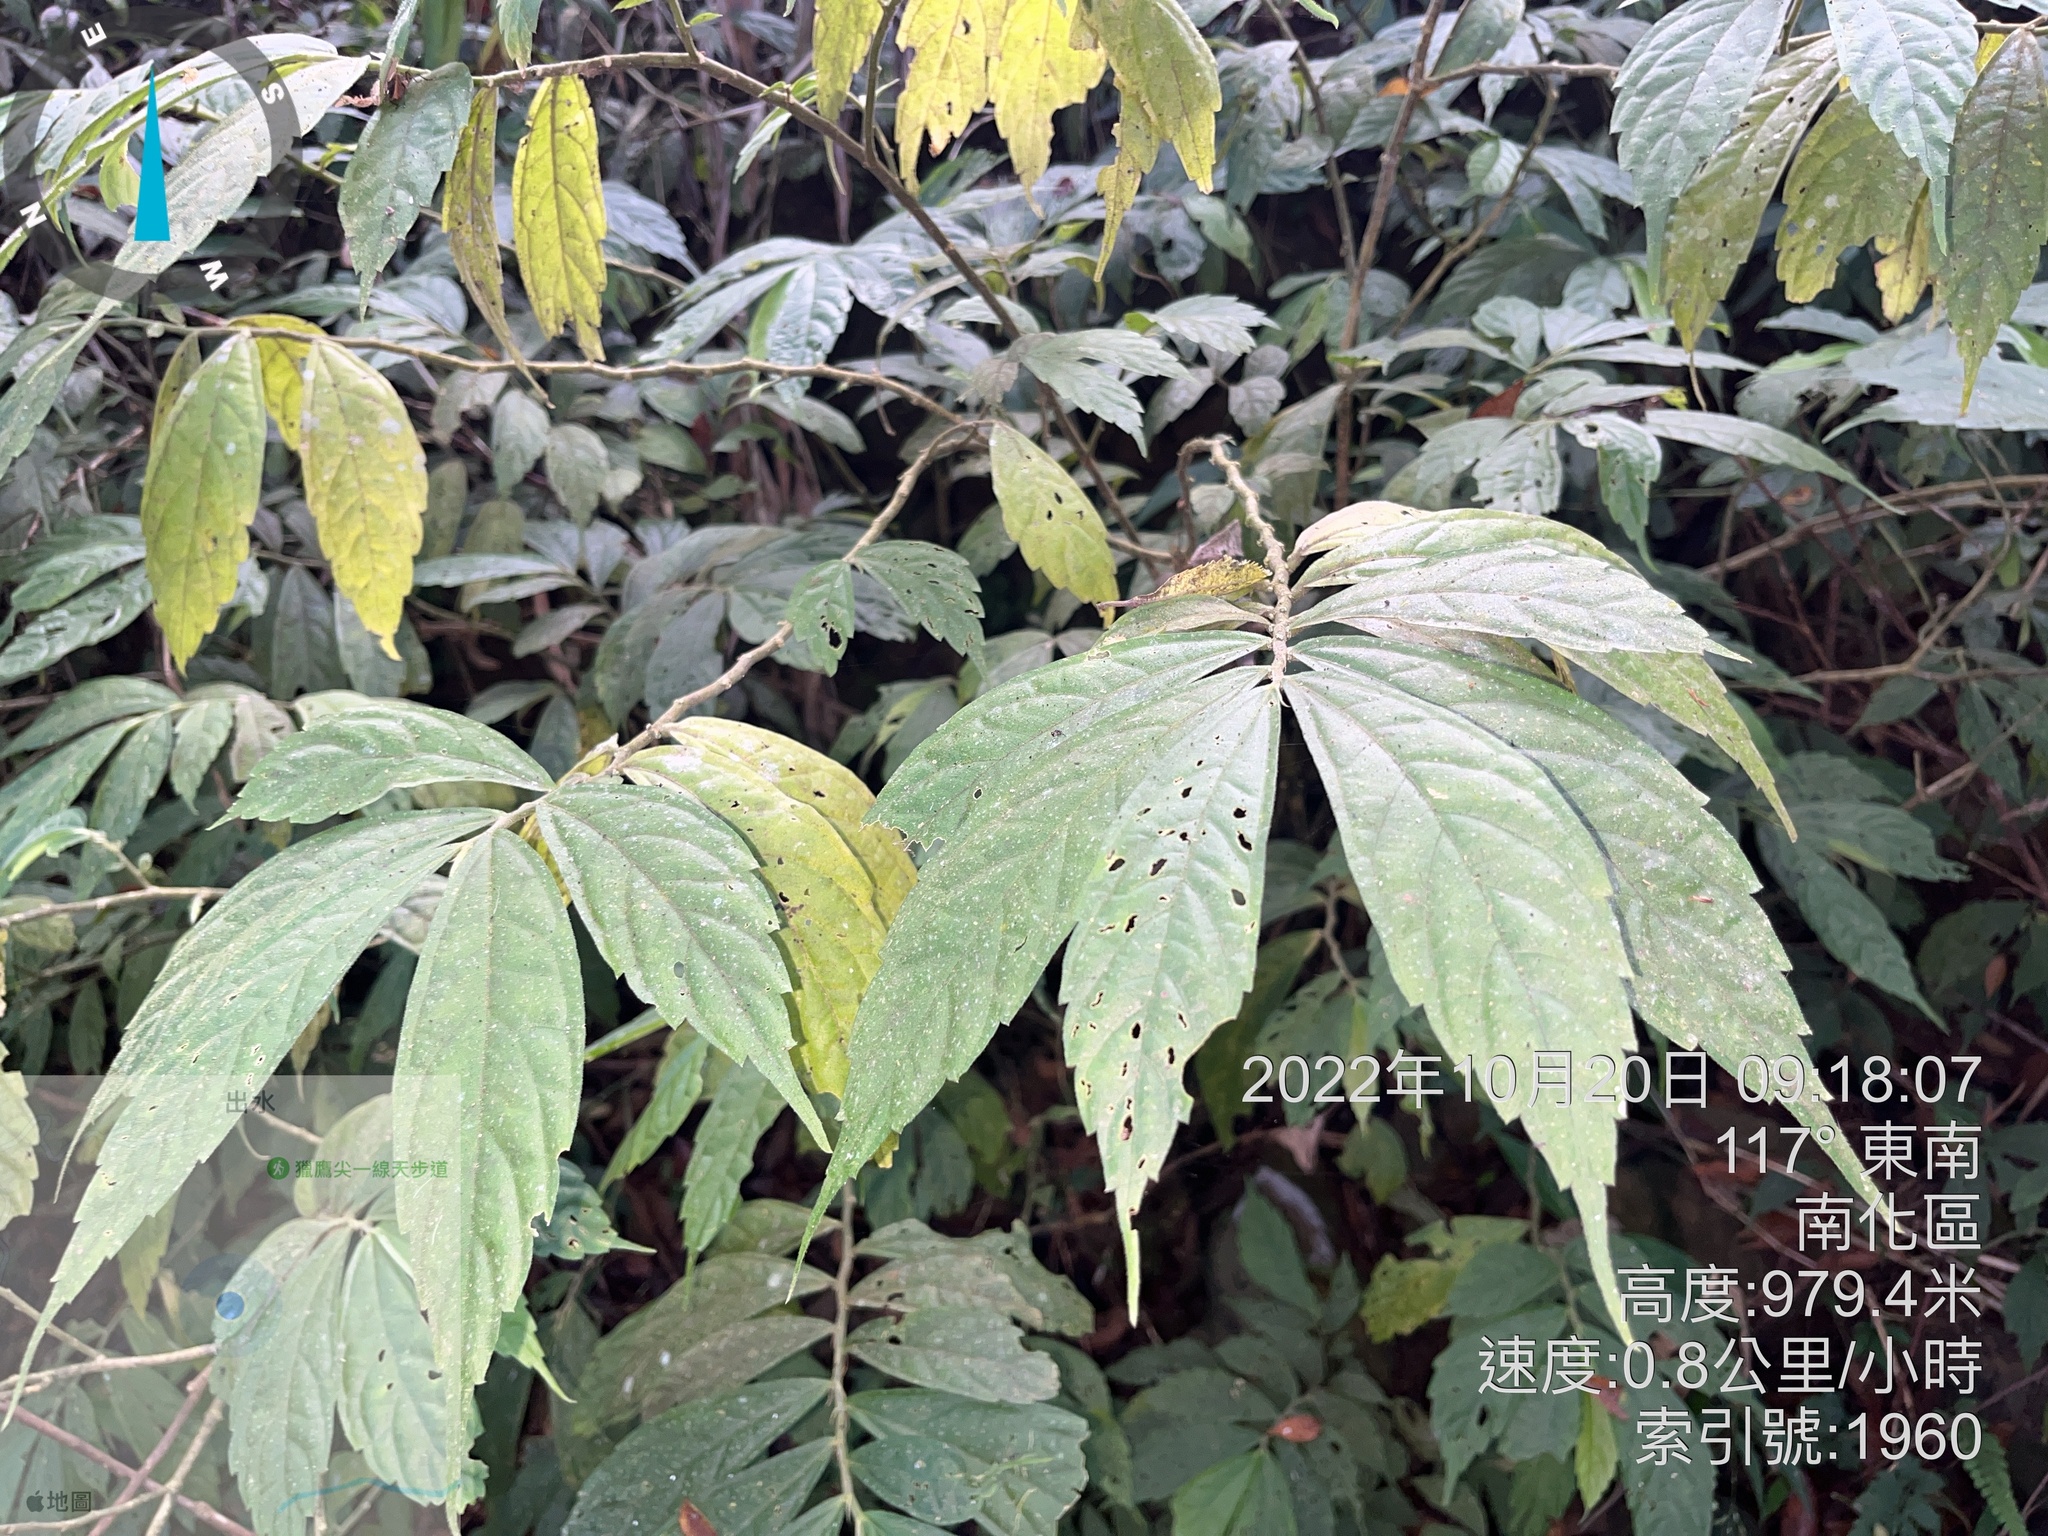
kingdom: Plantae
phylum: Tracheophyta
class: Magnoliopsida
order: Rosales
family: Urticaceae
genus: Elatostema
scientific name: Elatostema lineolatum
